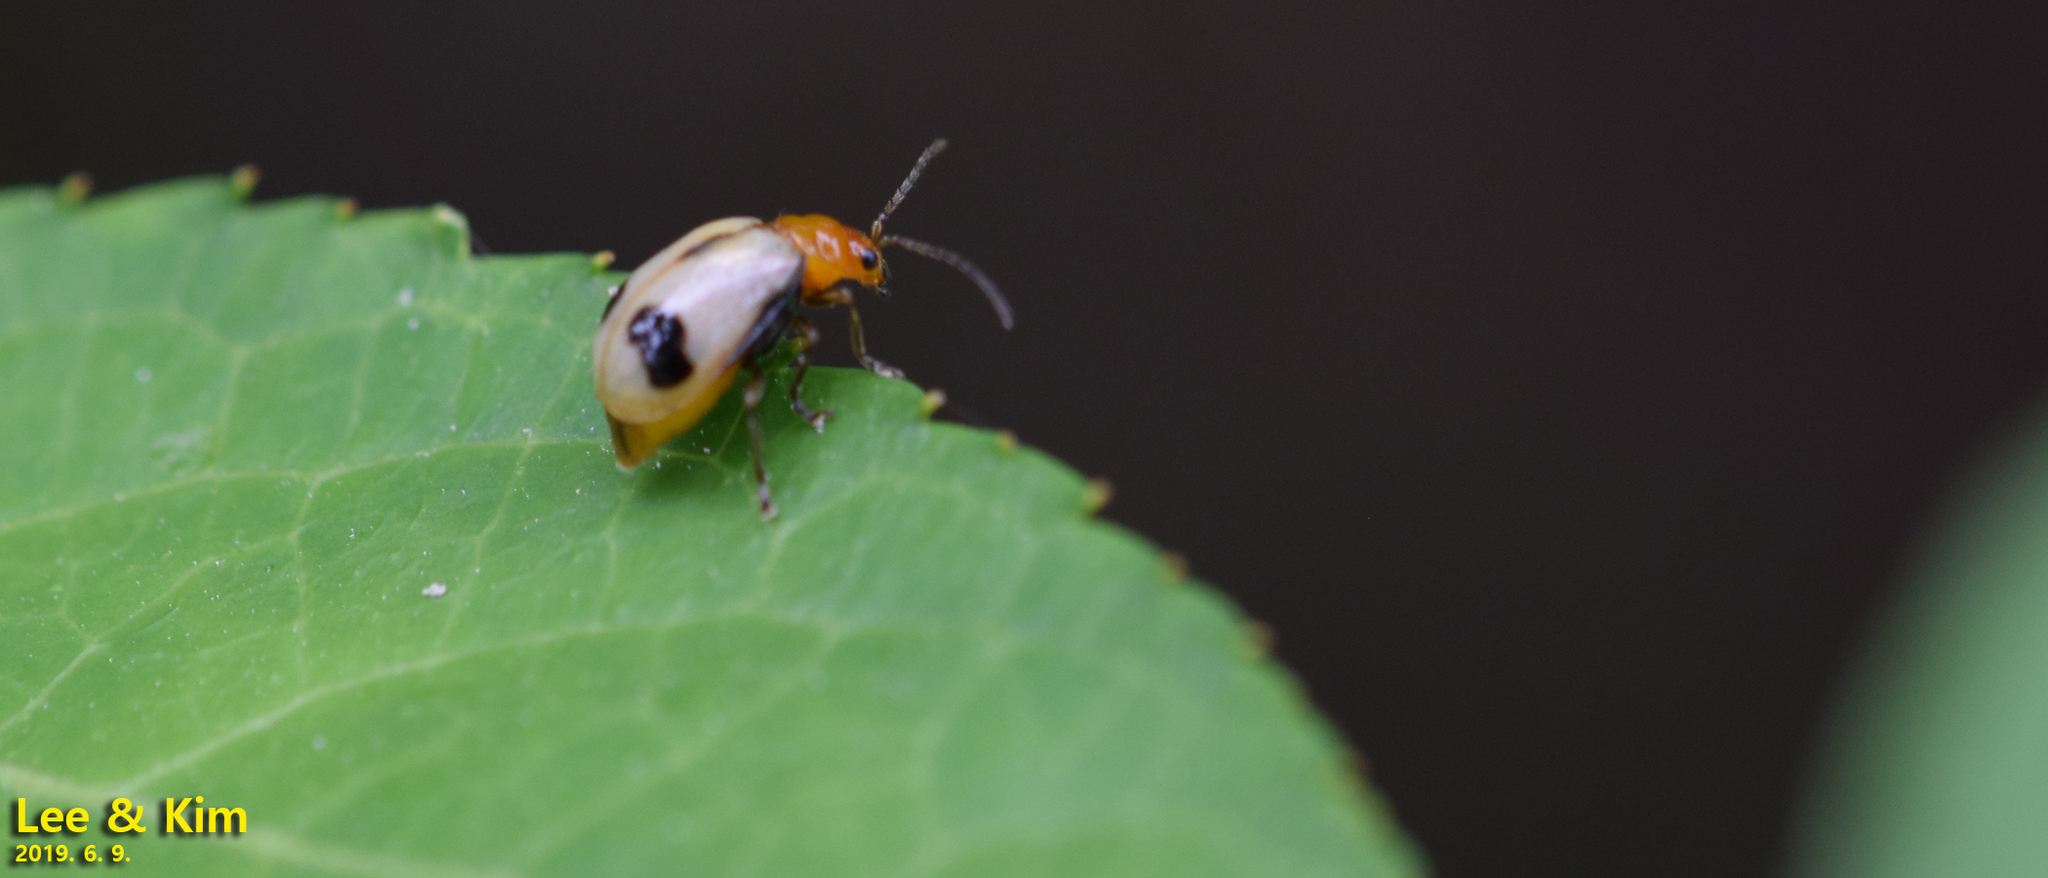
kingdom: Animalia
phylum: Arthropoda
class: Insecta
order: Coleoptera
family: Chrysomelidae
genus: Paridea
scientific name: Paridea angulicollis
